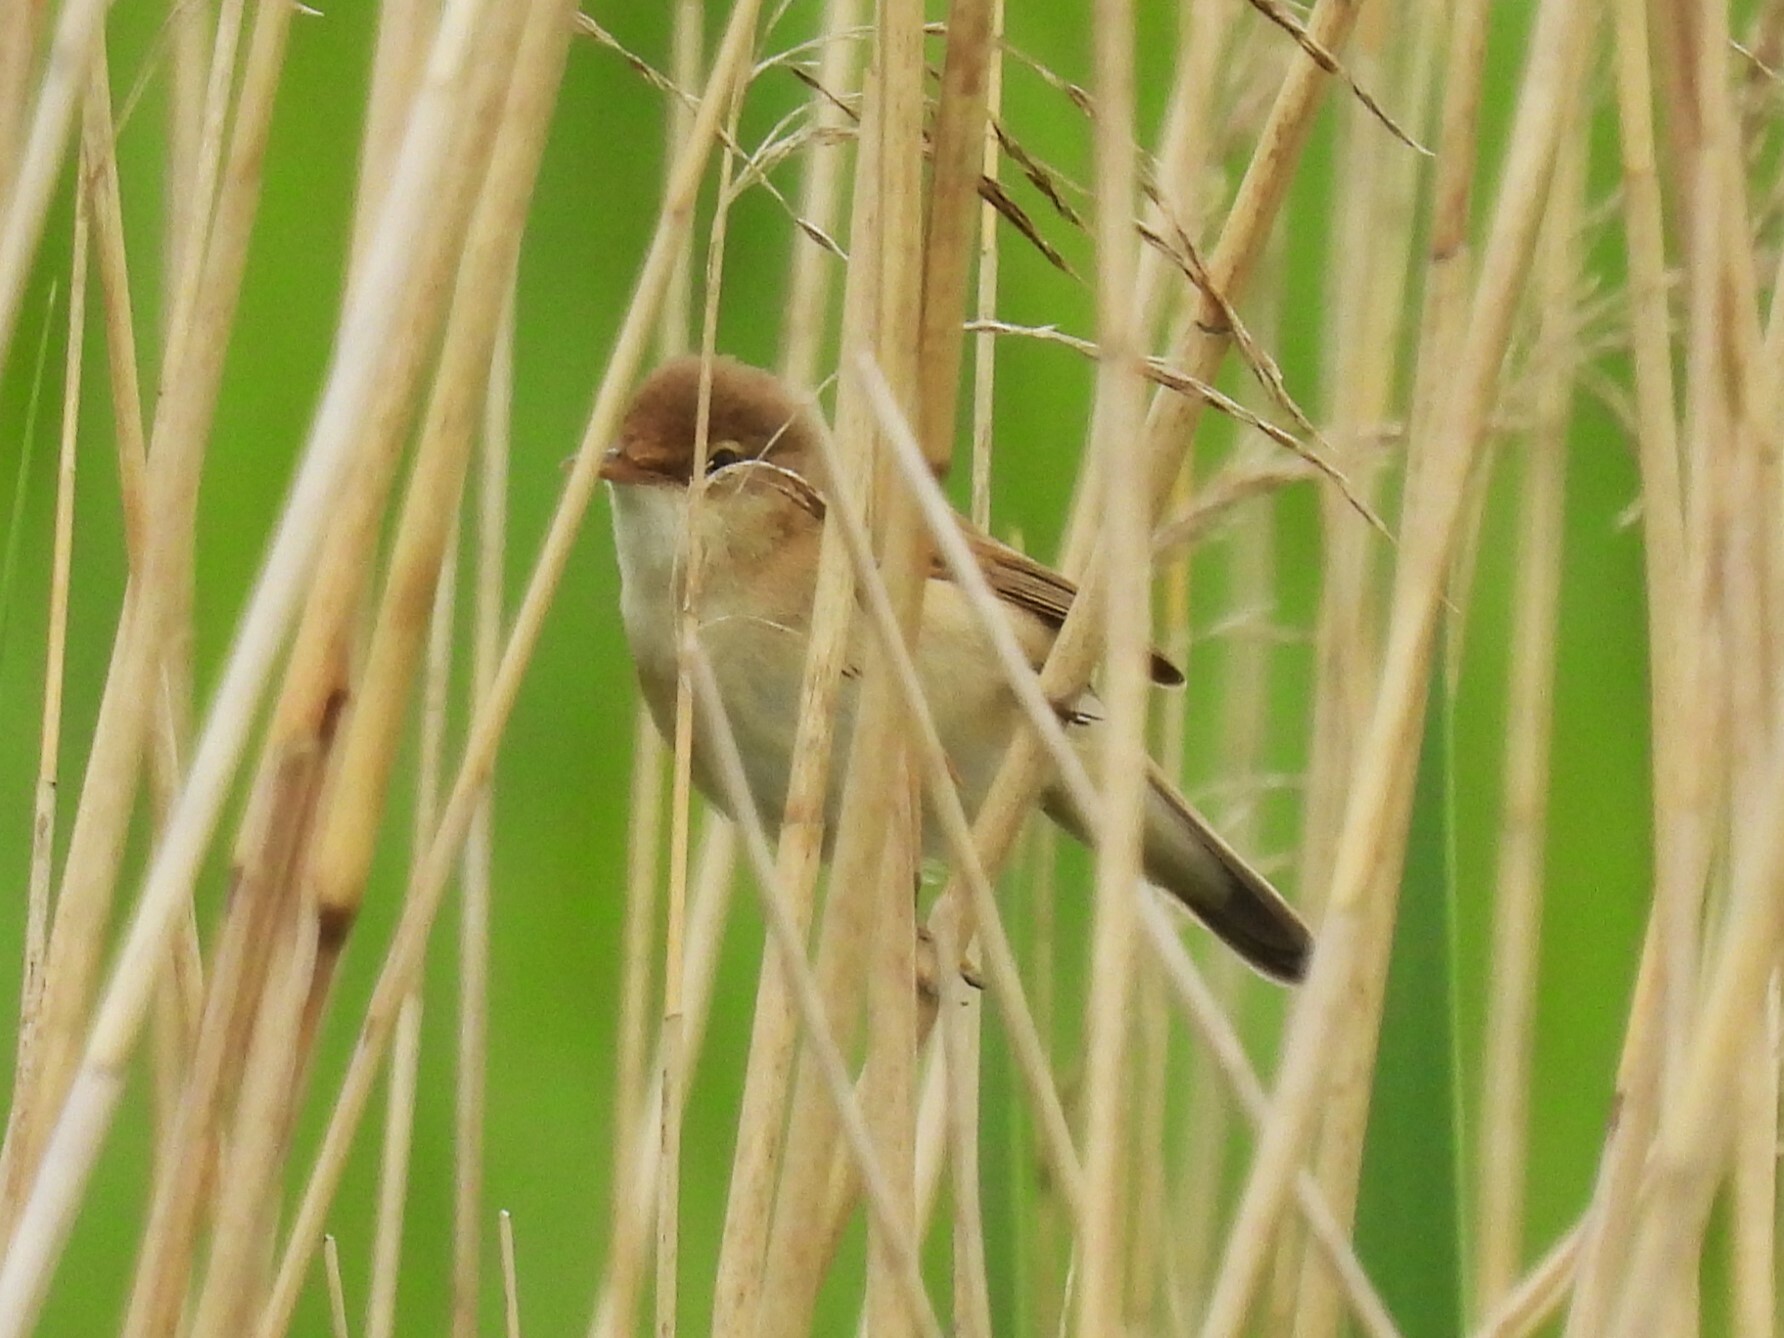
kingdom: Animalia
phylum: Chordata
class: Aves
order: Passeriformes
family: Acrocephalidae
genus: Acrocephalus
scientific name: Acrocephalus scirpaceus
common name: Eurasian reed warbler
